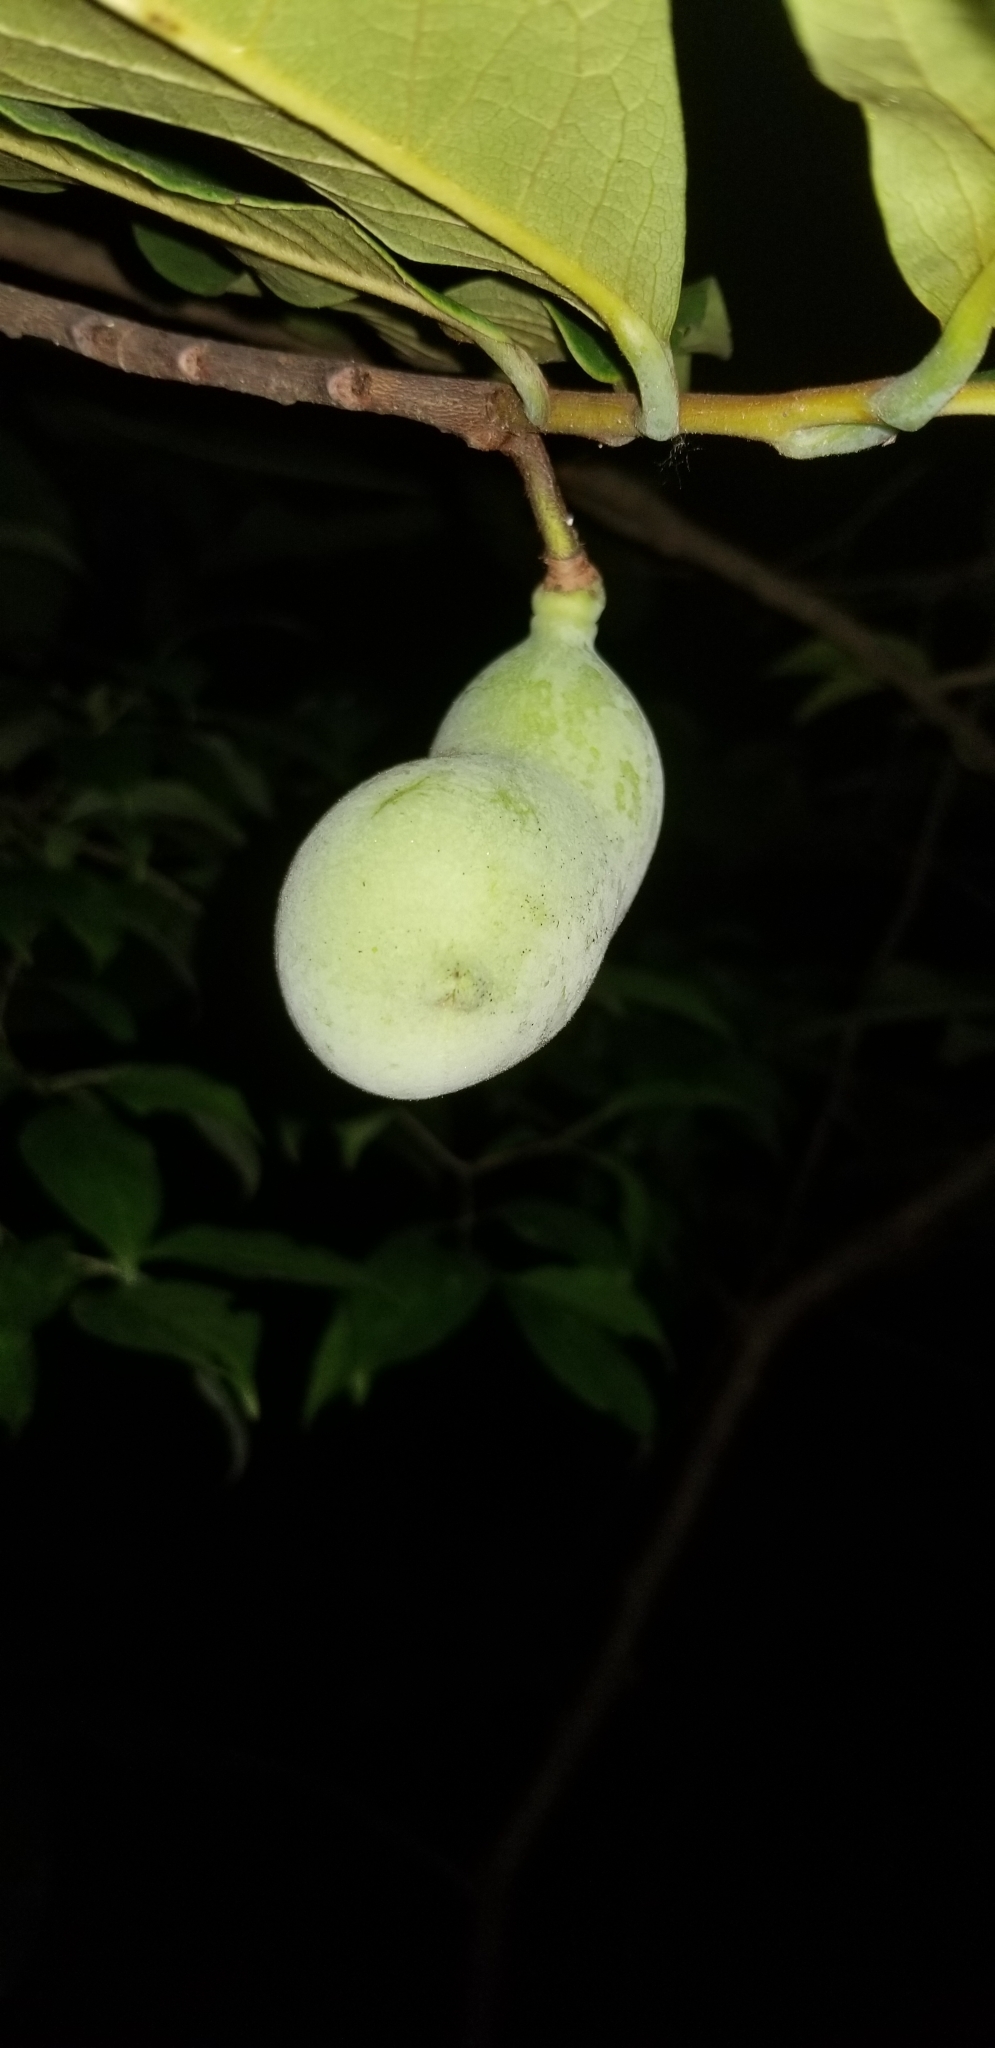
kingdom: Plantae
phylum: Tracheophyta
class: Magnoliopsida
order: Magnoliales
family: Annonaceae
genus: Asimina
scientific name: Asimina triloba
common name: Dog-banana
